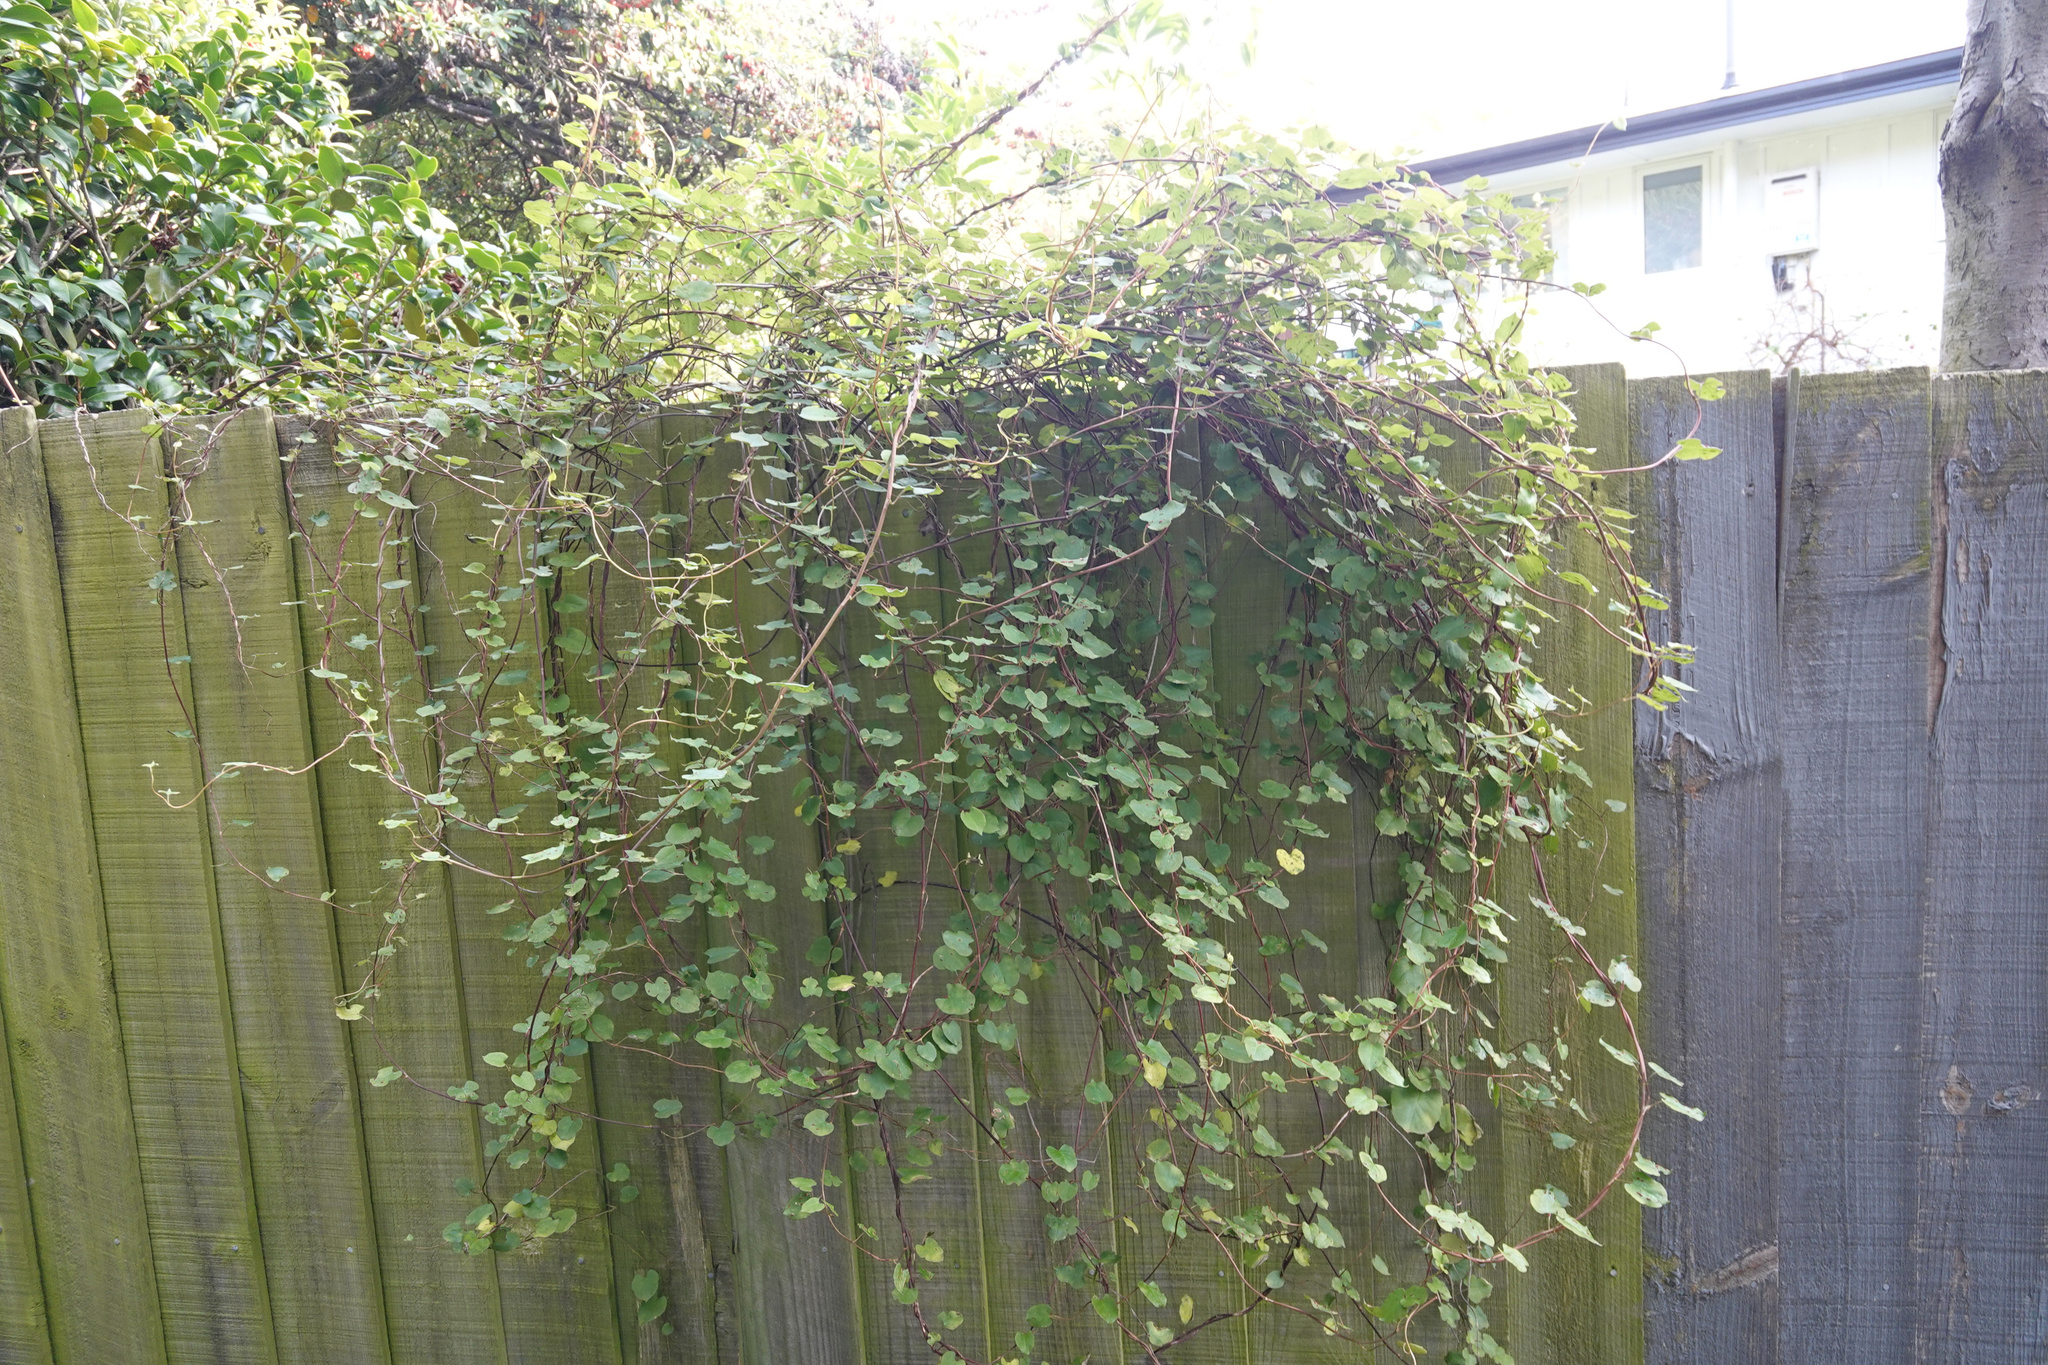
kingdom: Plantae
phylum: Tracheophyta
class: Magnoliopsida
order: Caryophyllales
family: Polygonaceae
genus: Muehlenbeckia
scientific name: Muehlenbeckia australis
